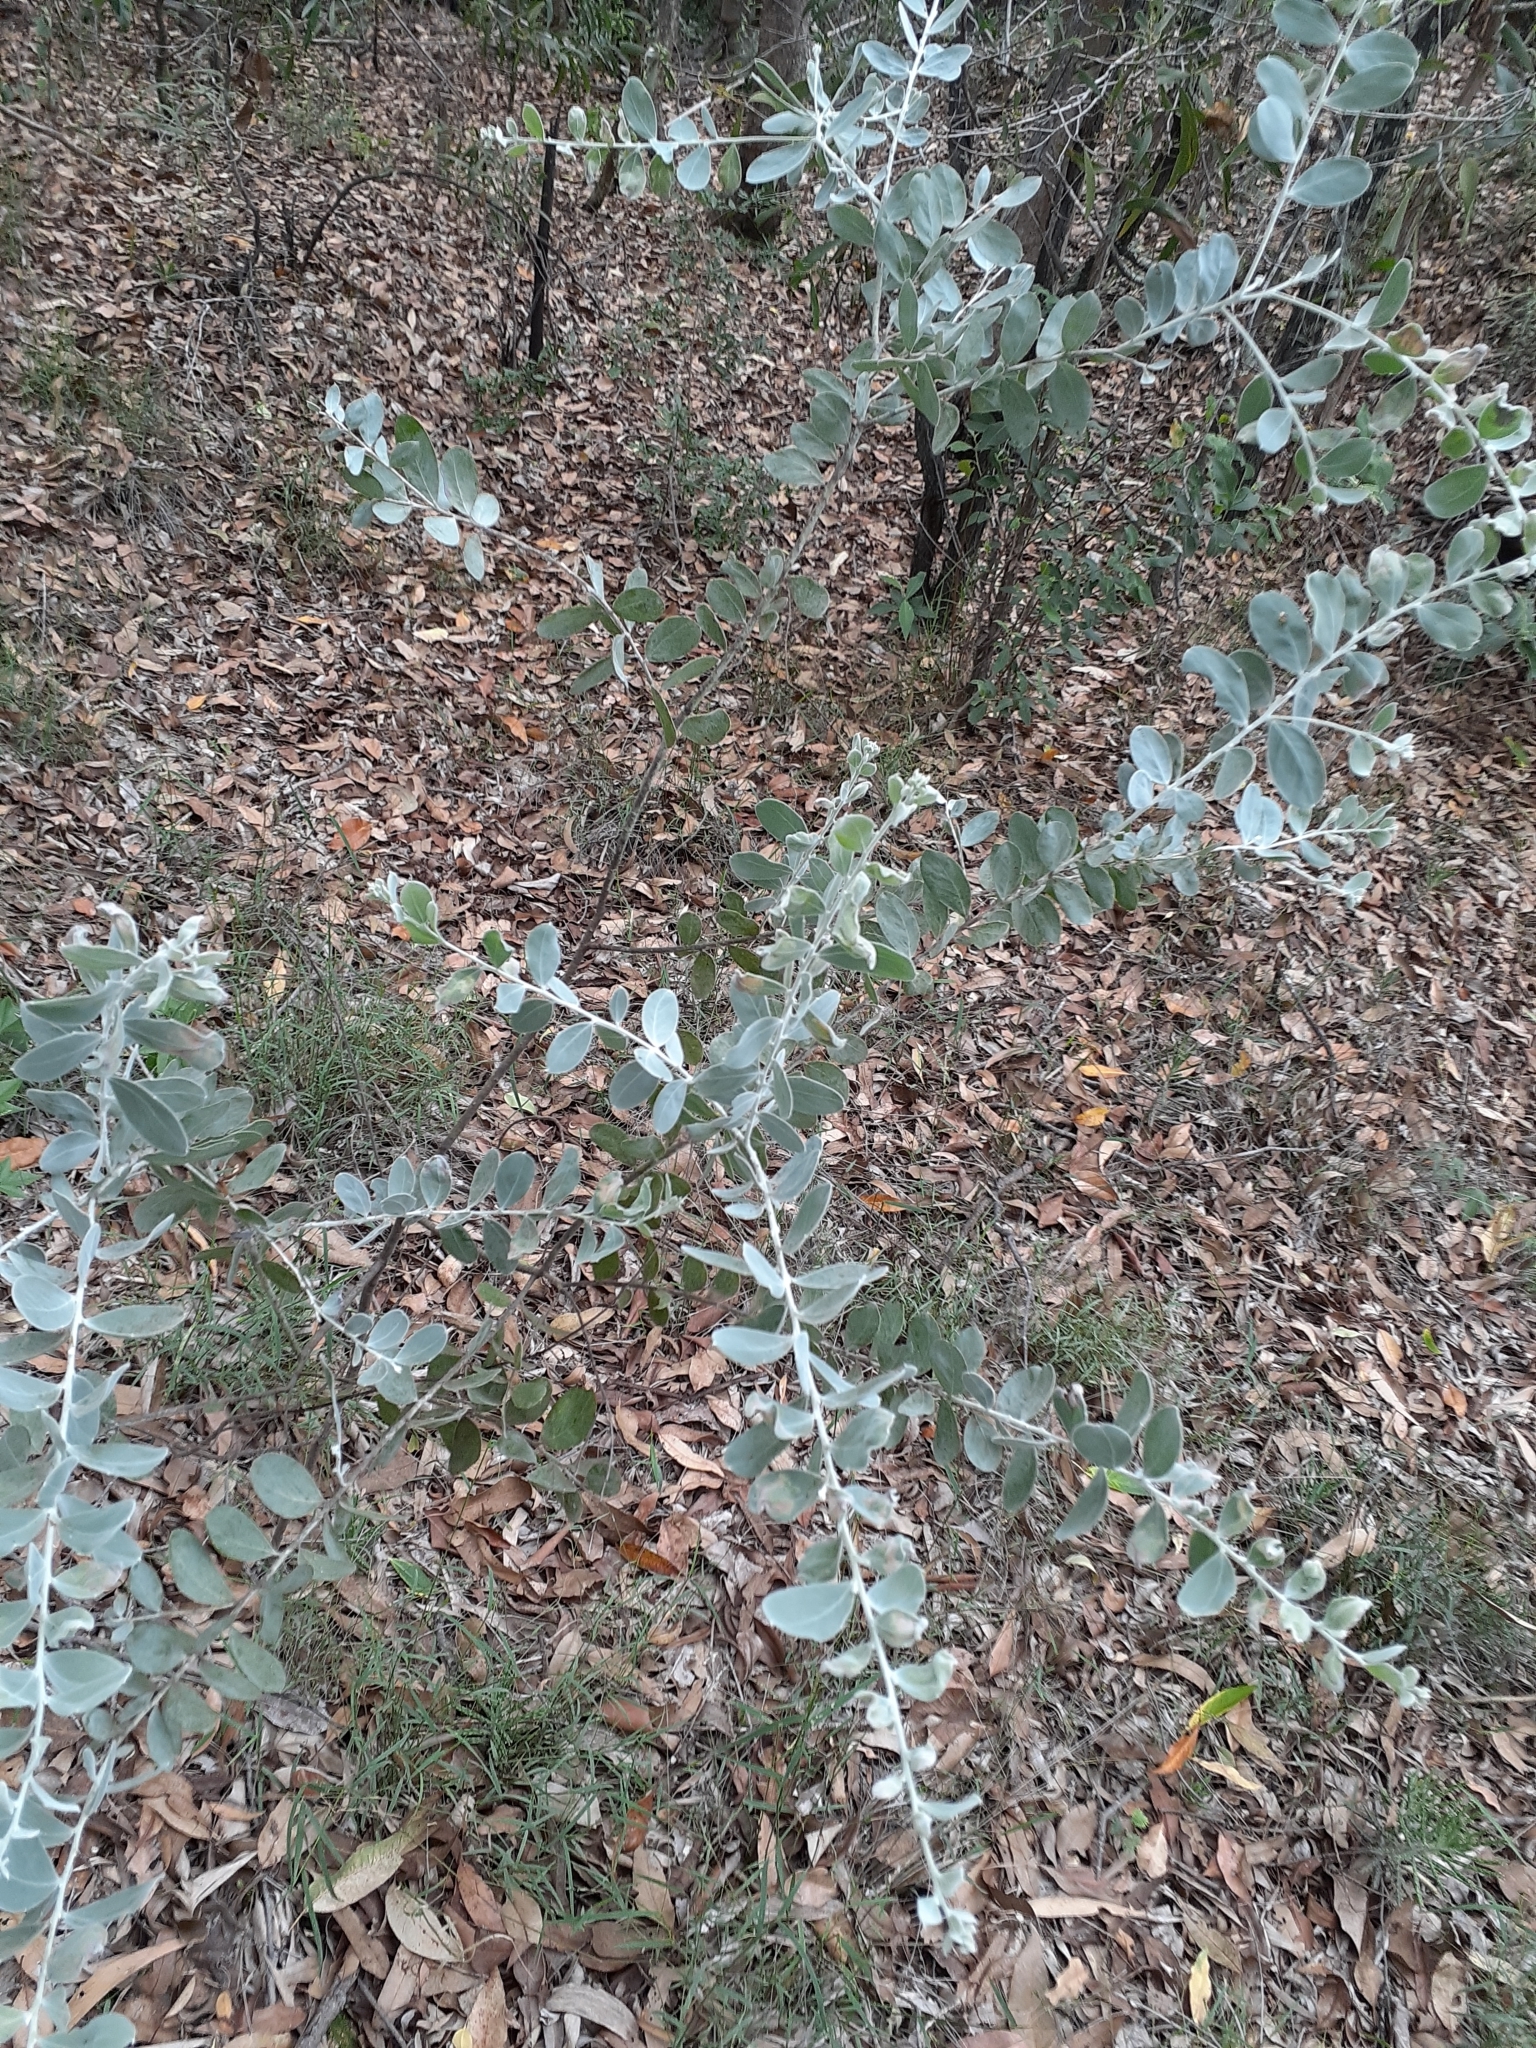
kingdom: Plantae
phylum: Tracheophyta
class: Magnoliopsida
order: Fabales
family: Fabaceae
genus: Acacia
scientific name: Acacia podalyriifolia
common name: Pearl wattle
